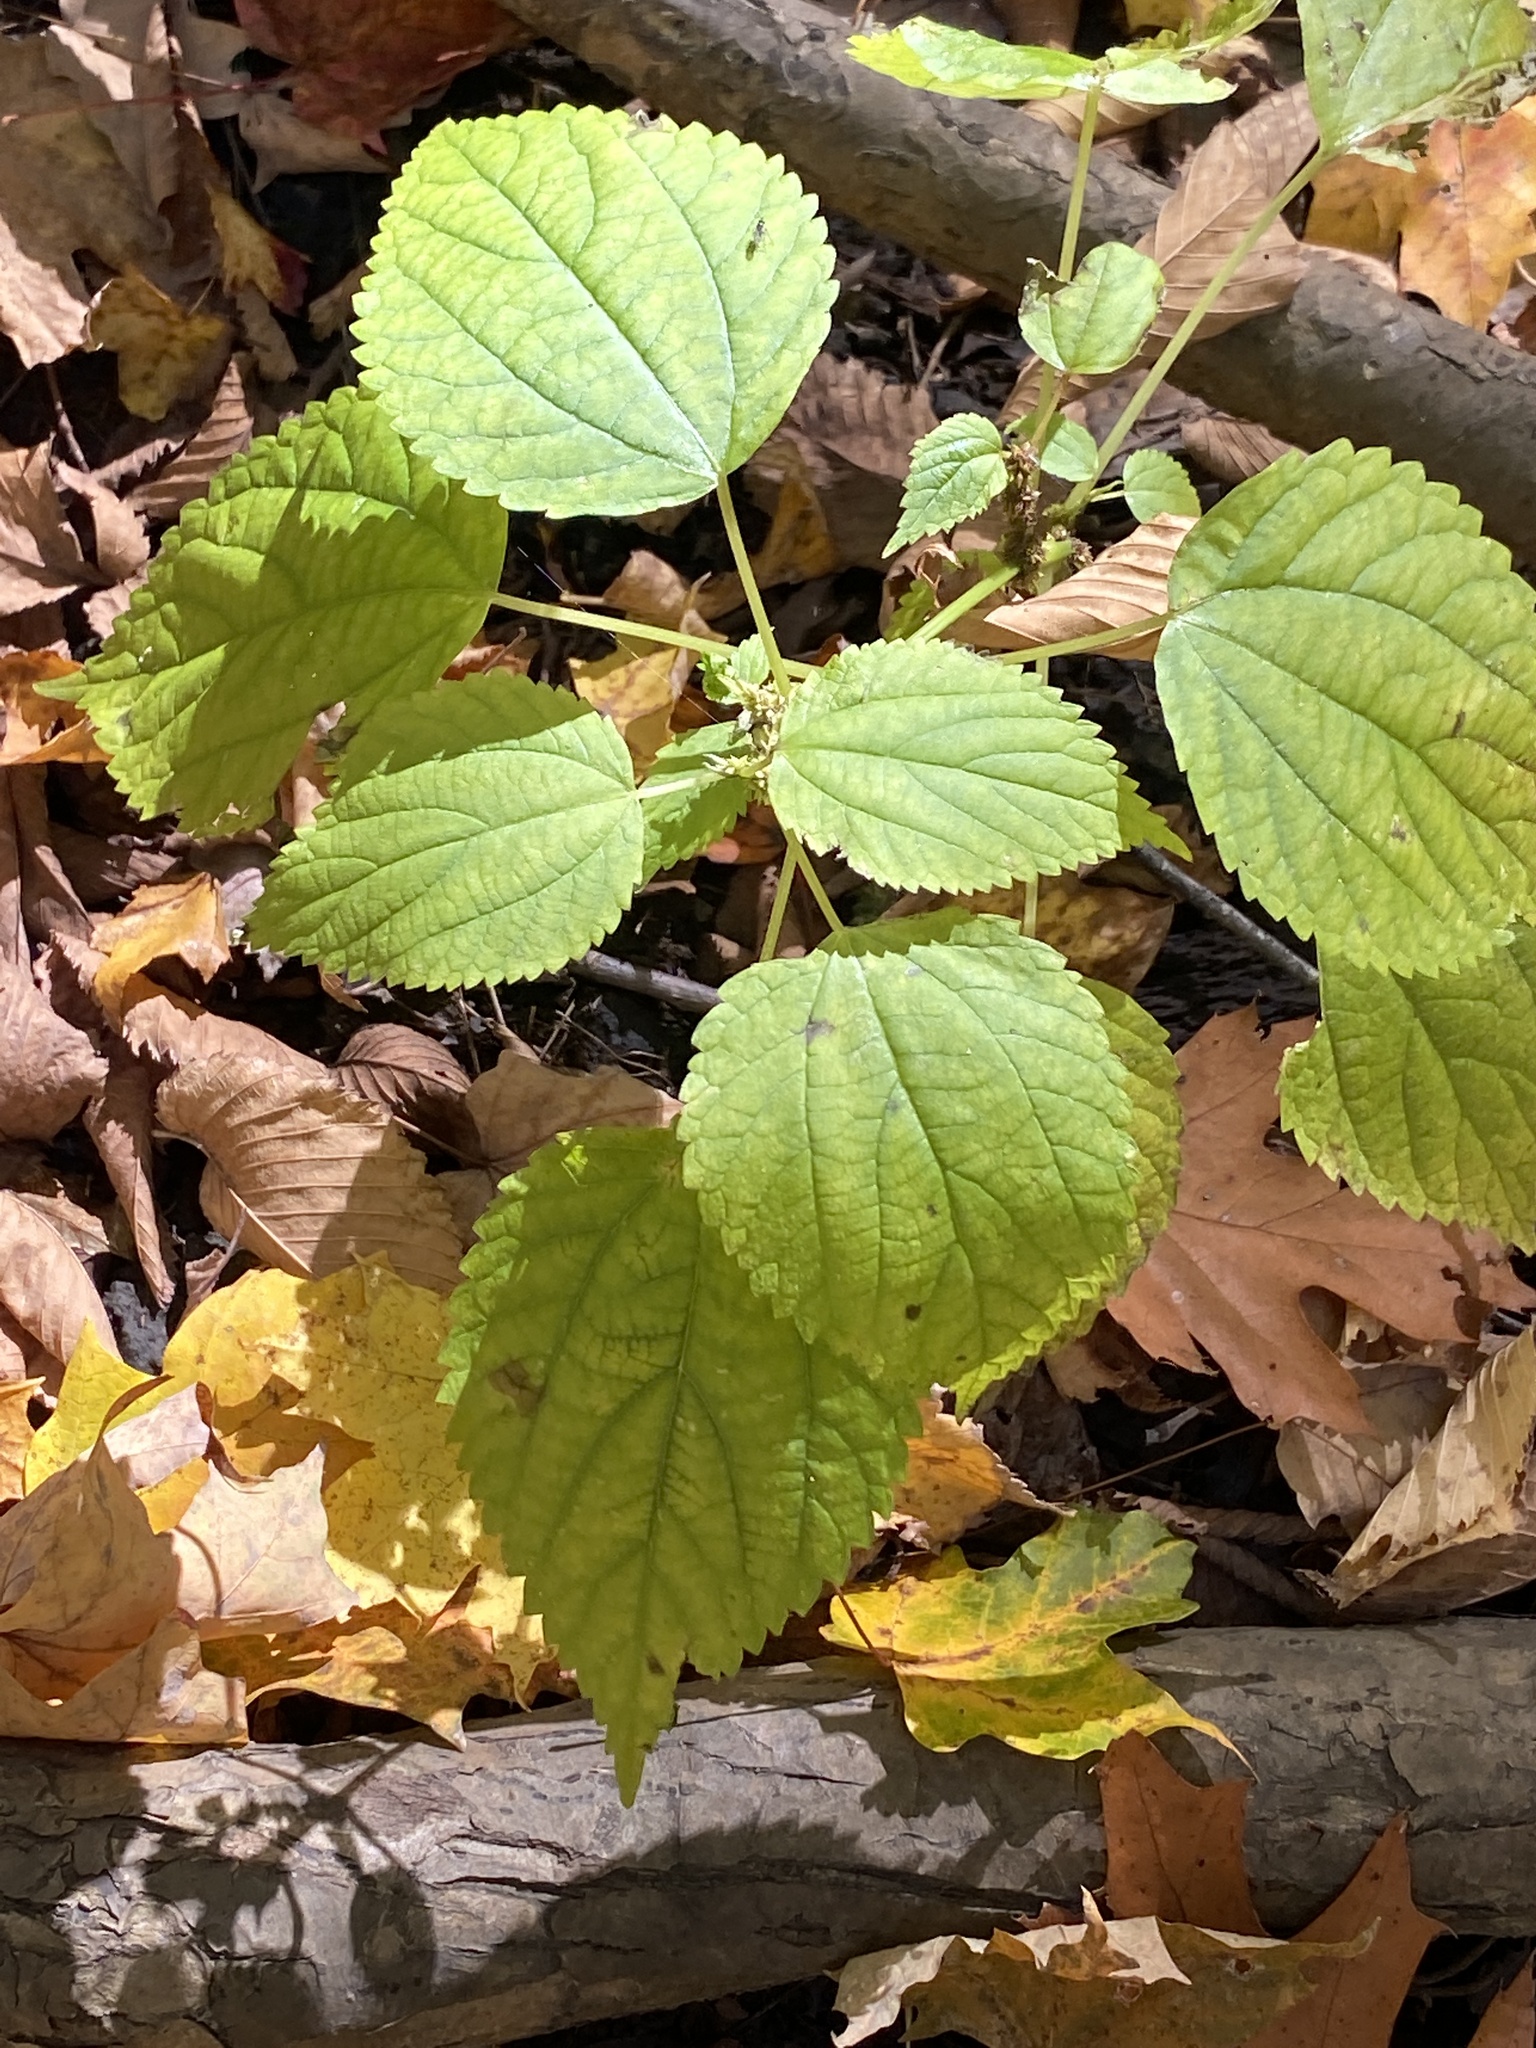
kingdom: Plantae
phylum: Tracheophyta
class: Magnoliopsida
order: Rosales
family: Urticaceae
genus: Boehmeria
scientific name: Boehmeria cylindrica
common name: Bog-hemp
